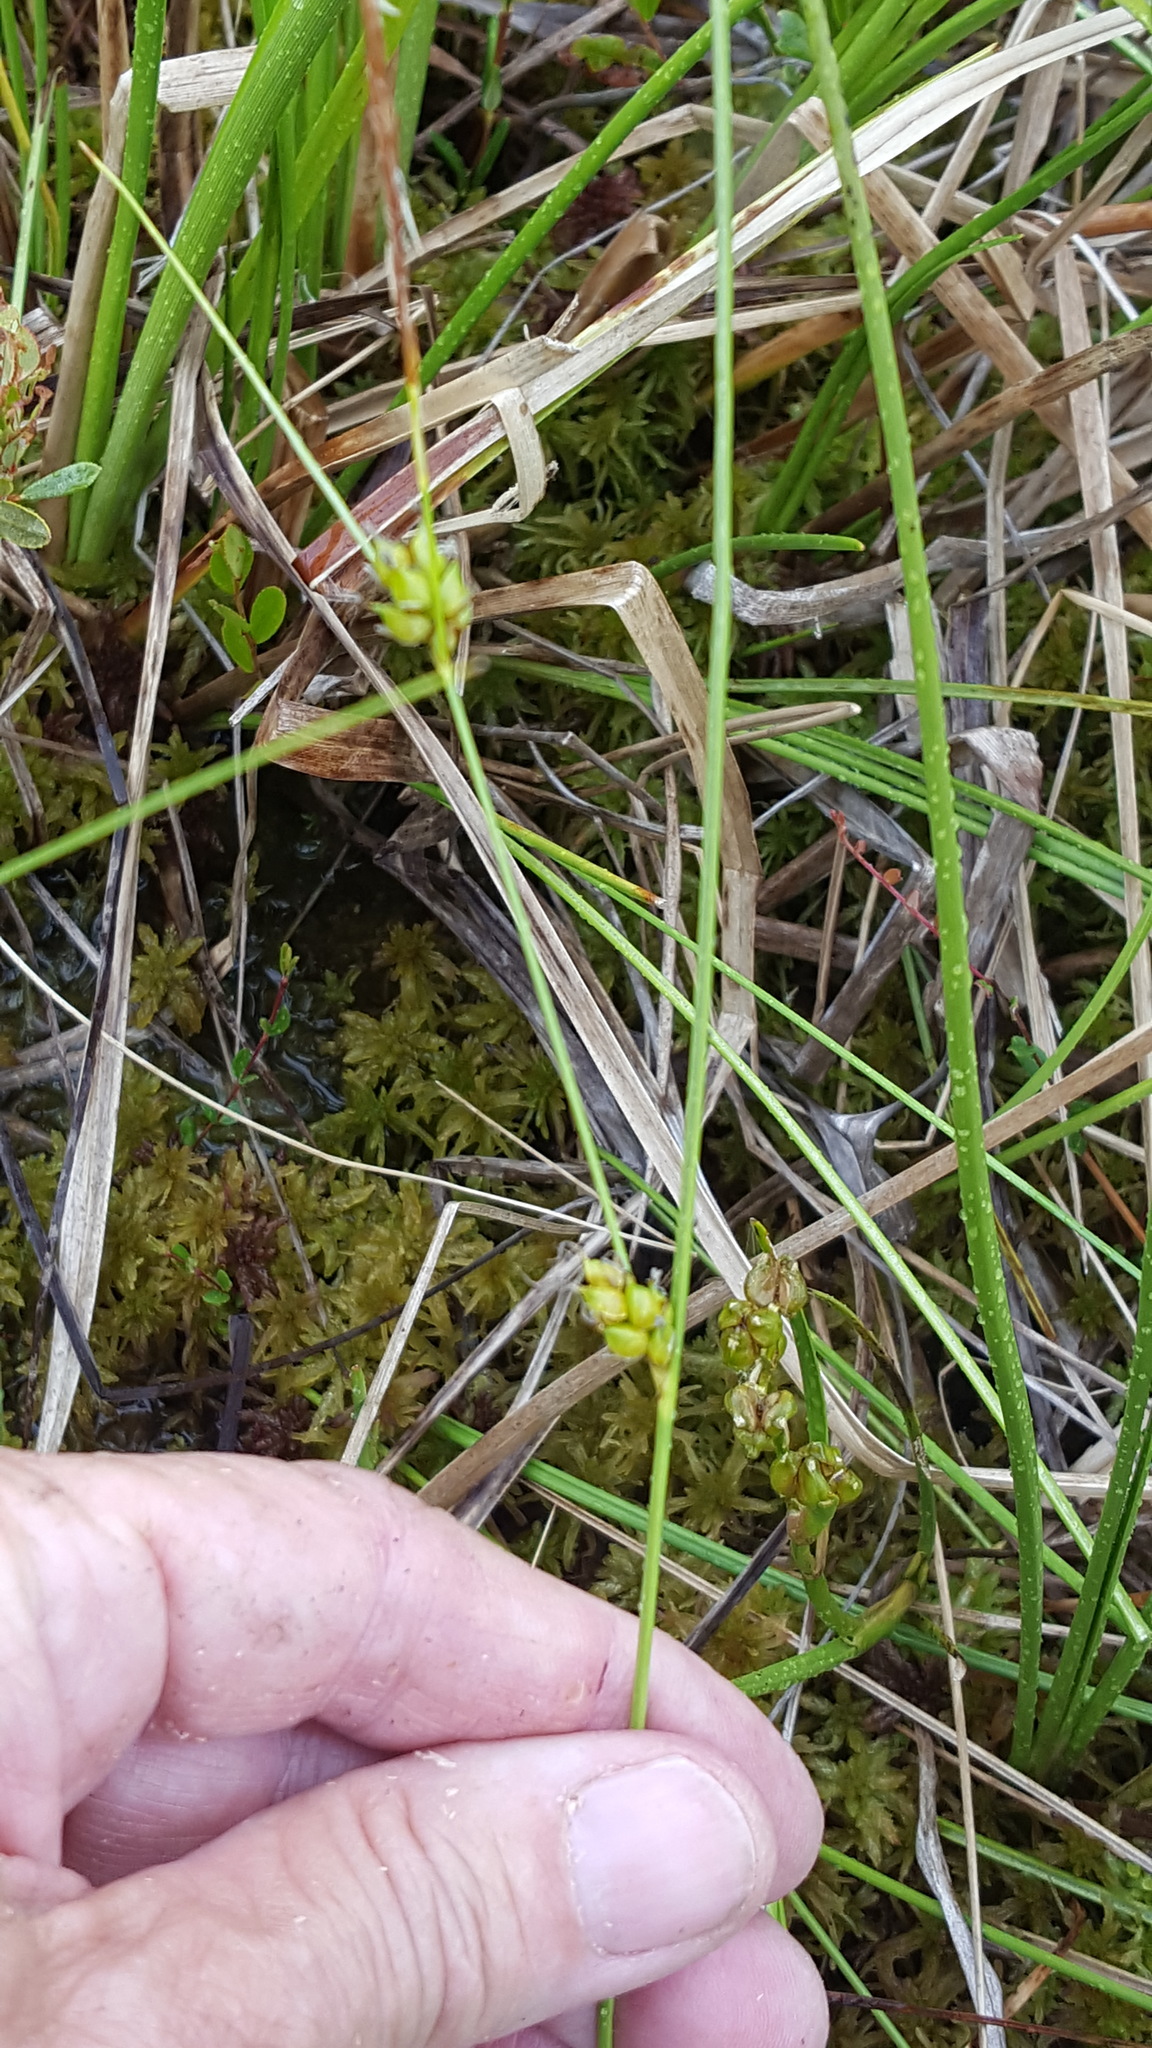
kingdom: Plantae
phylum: Tracheophyta
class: Liliopsida
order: Poales
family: Cyperaceae
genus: Carex
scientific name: Carex oligosperma
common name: Few-seed sedge
